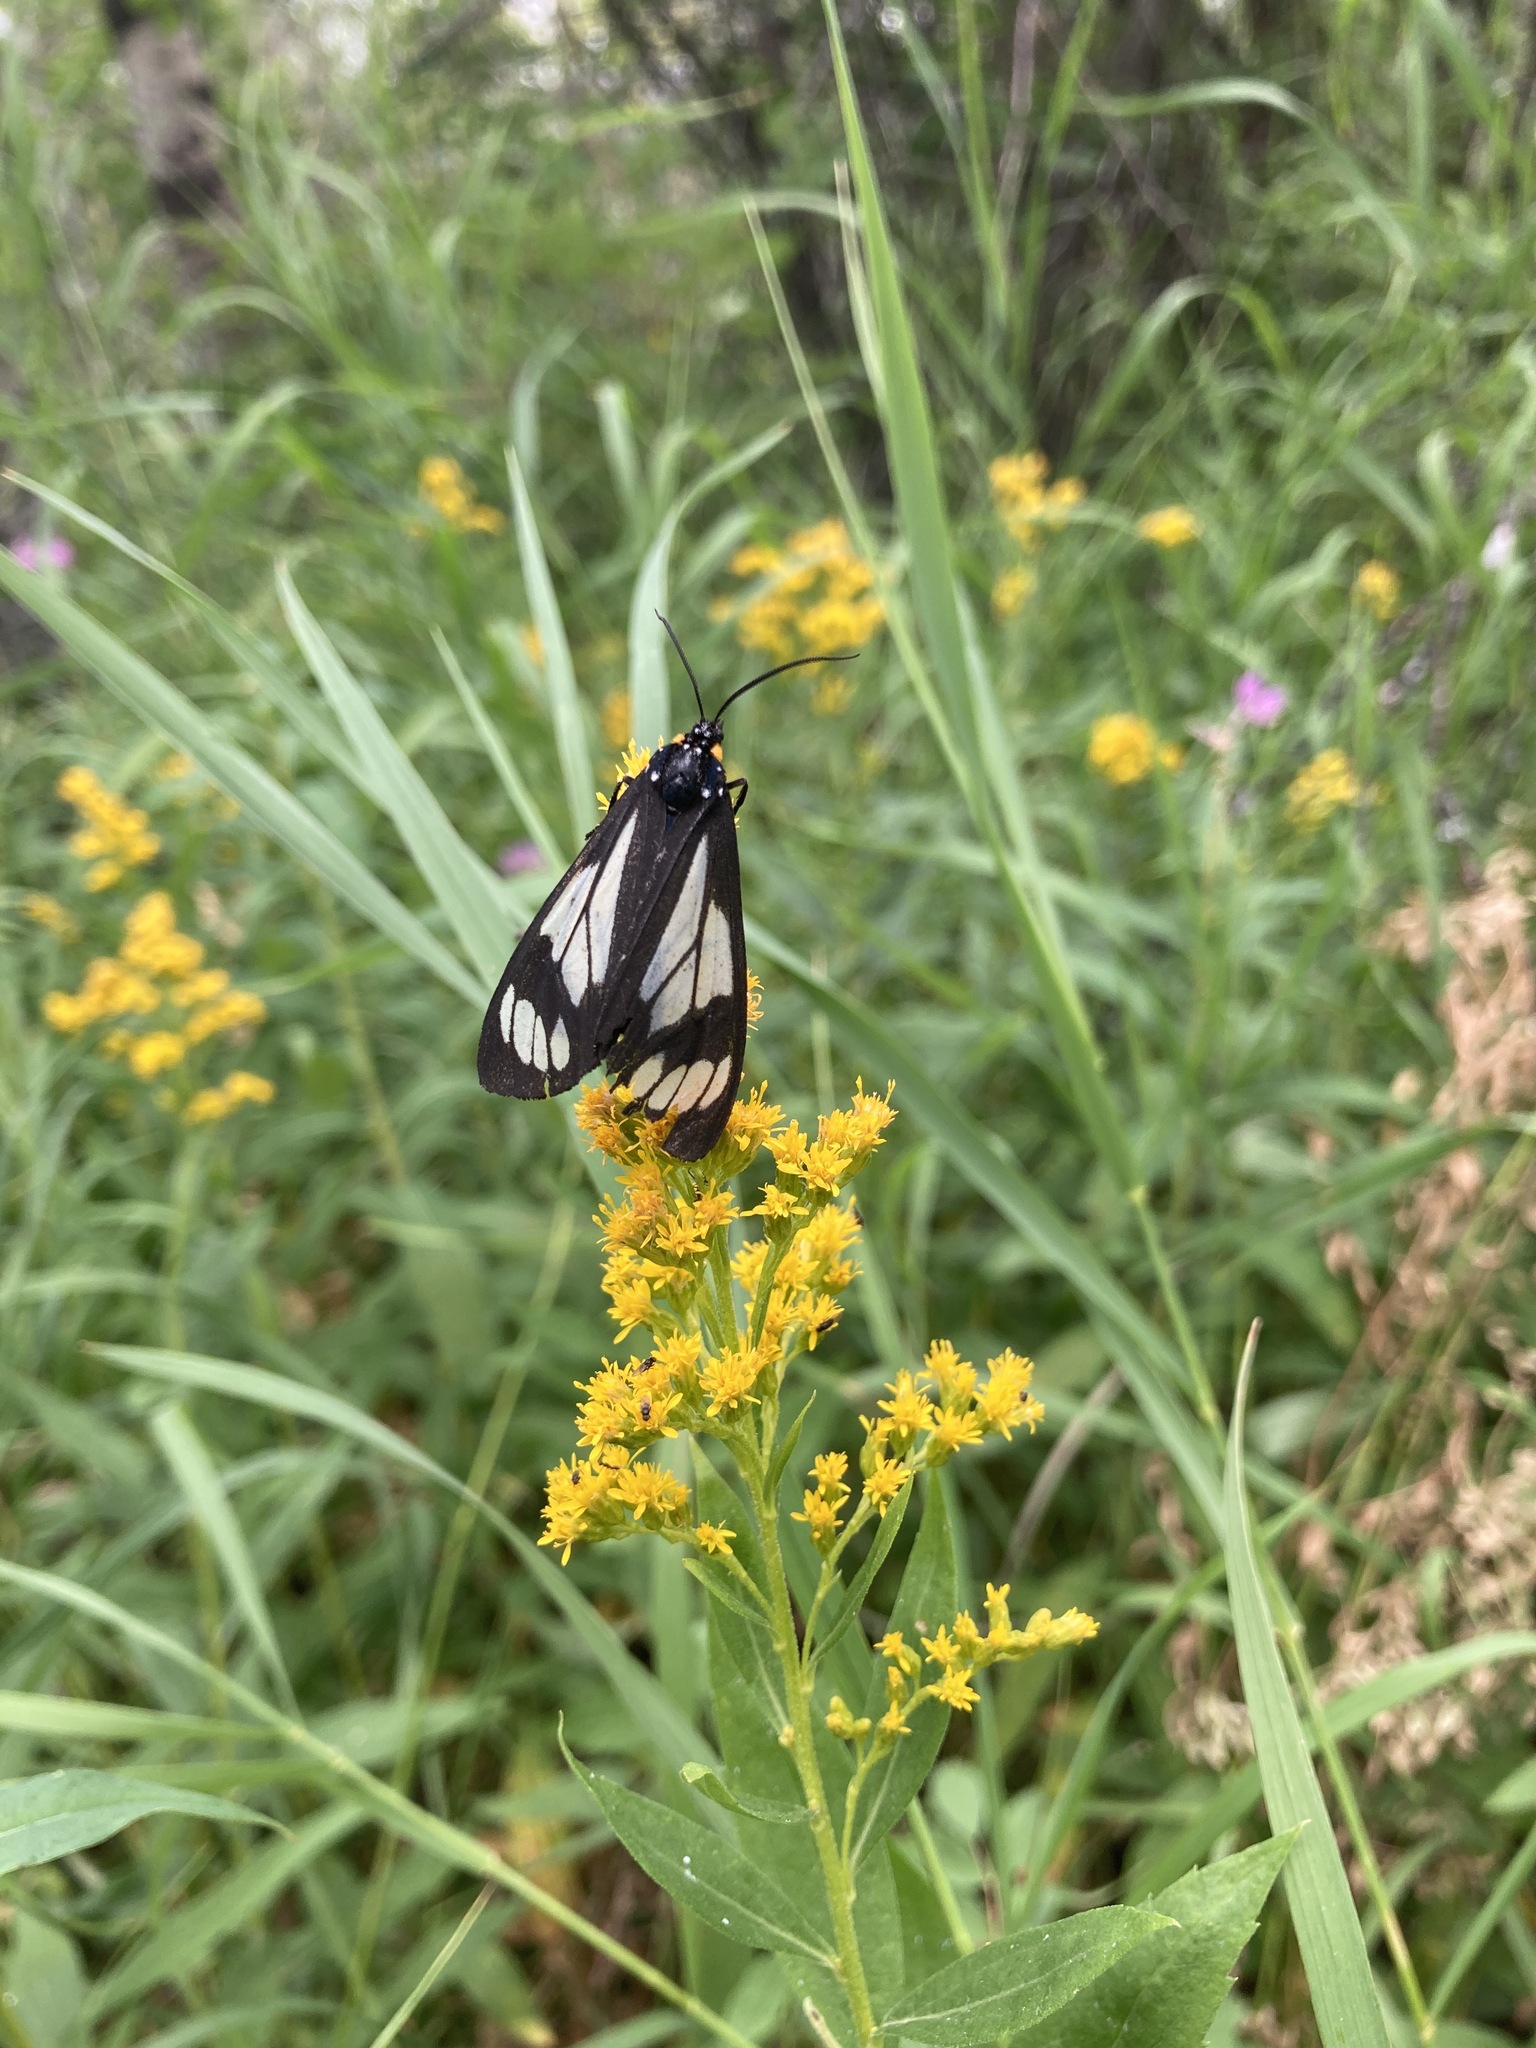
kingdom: Animalia
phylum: Arthropoda
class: Insecta
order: Lepidoptera
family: Erebidae
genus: Gnophaela
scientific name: Gnophaela vermiculata
